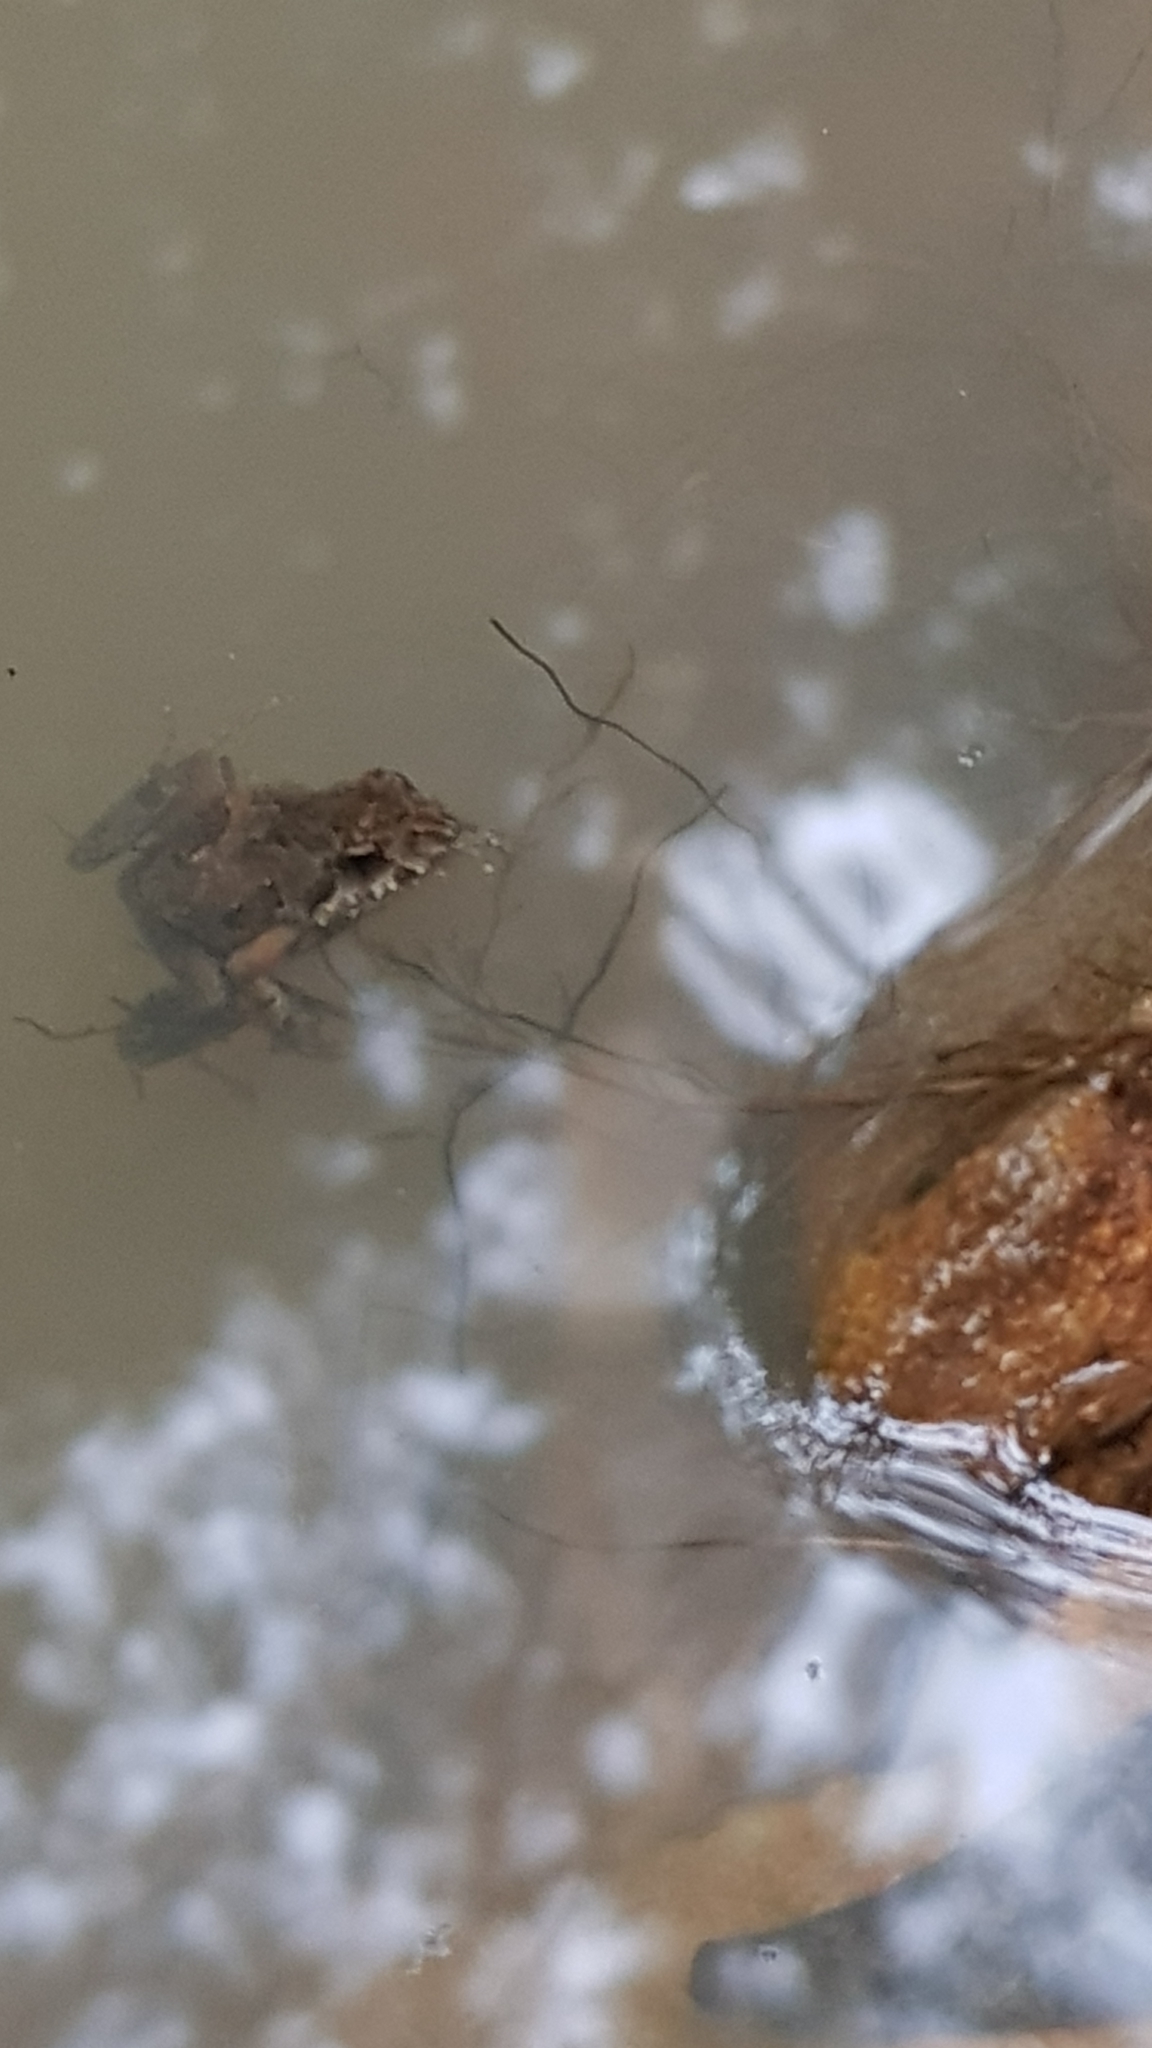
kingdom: Animalia
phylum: Chordata
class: Amphibia
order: Anura
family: Myobatrachidae
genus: Crinia
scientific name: Crinia signifera
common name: Brown froglet
